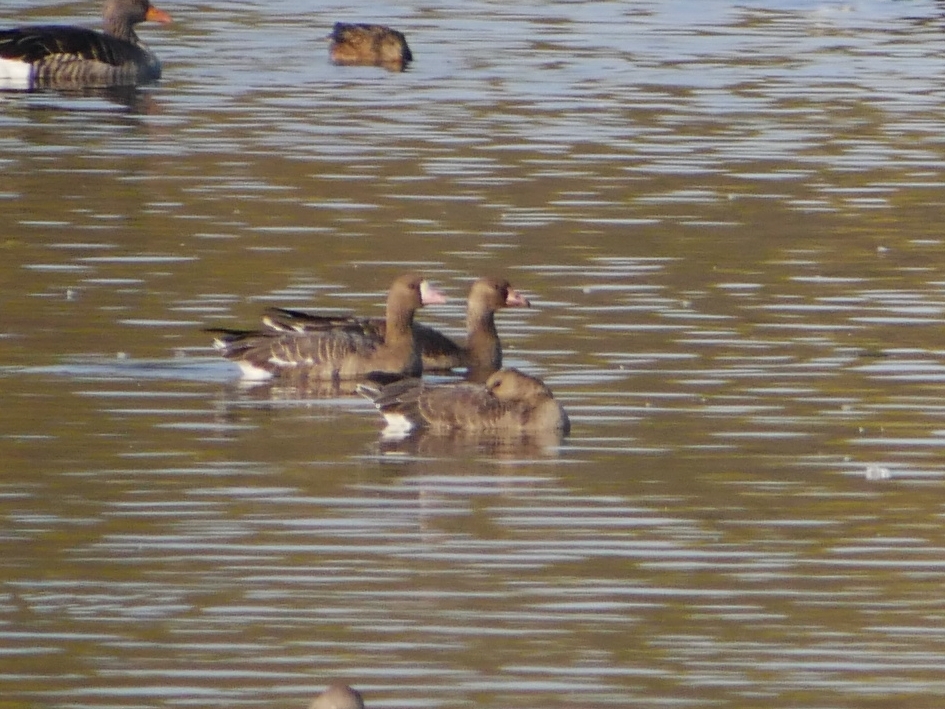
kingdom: Animalia
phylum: Chordata
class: Aves
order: Anseriformes
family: Anatidae
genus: Anser
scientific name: Anser albifrons
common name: Greater white-fronted goose
